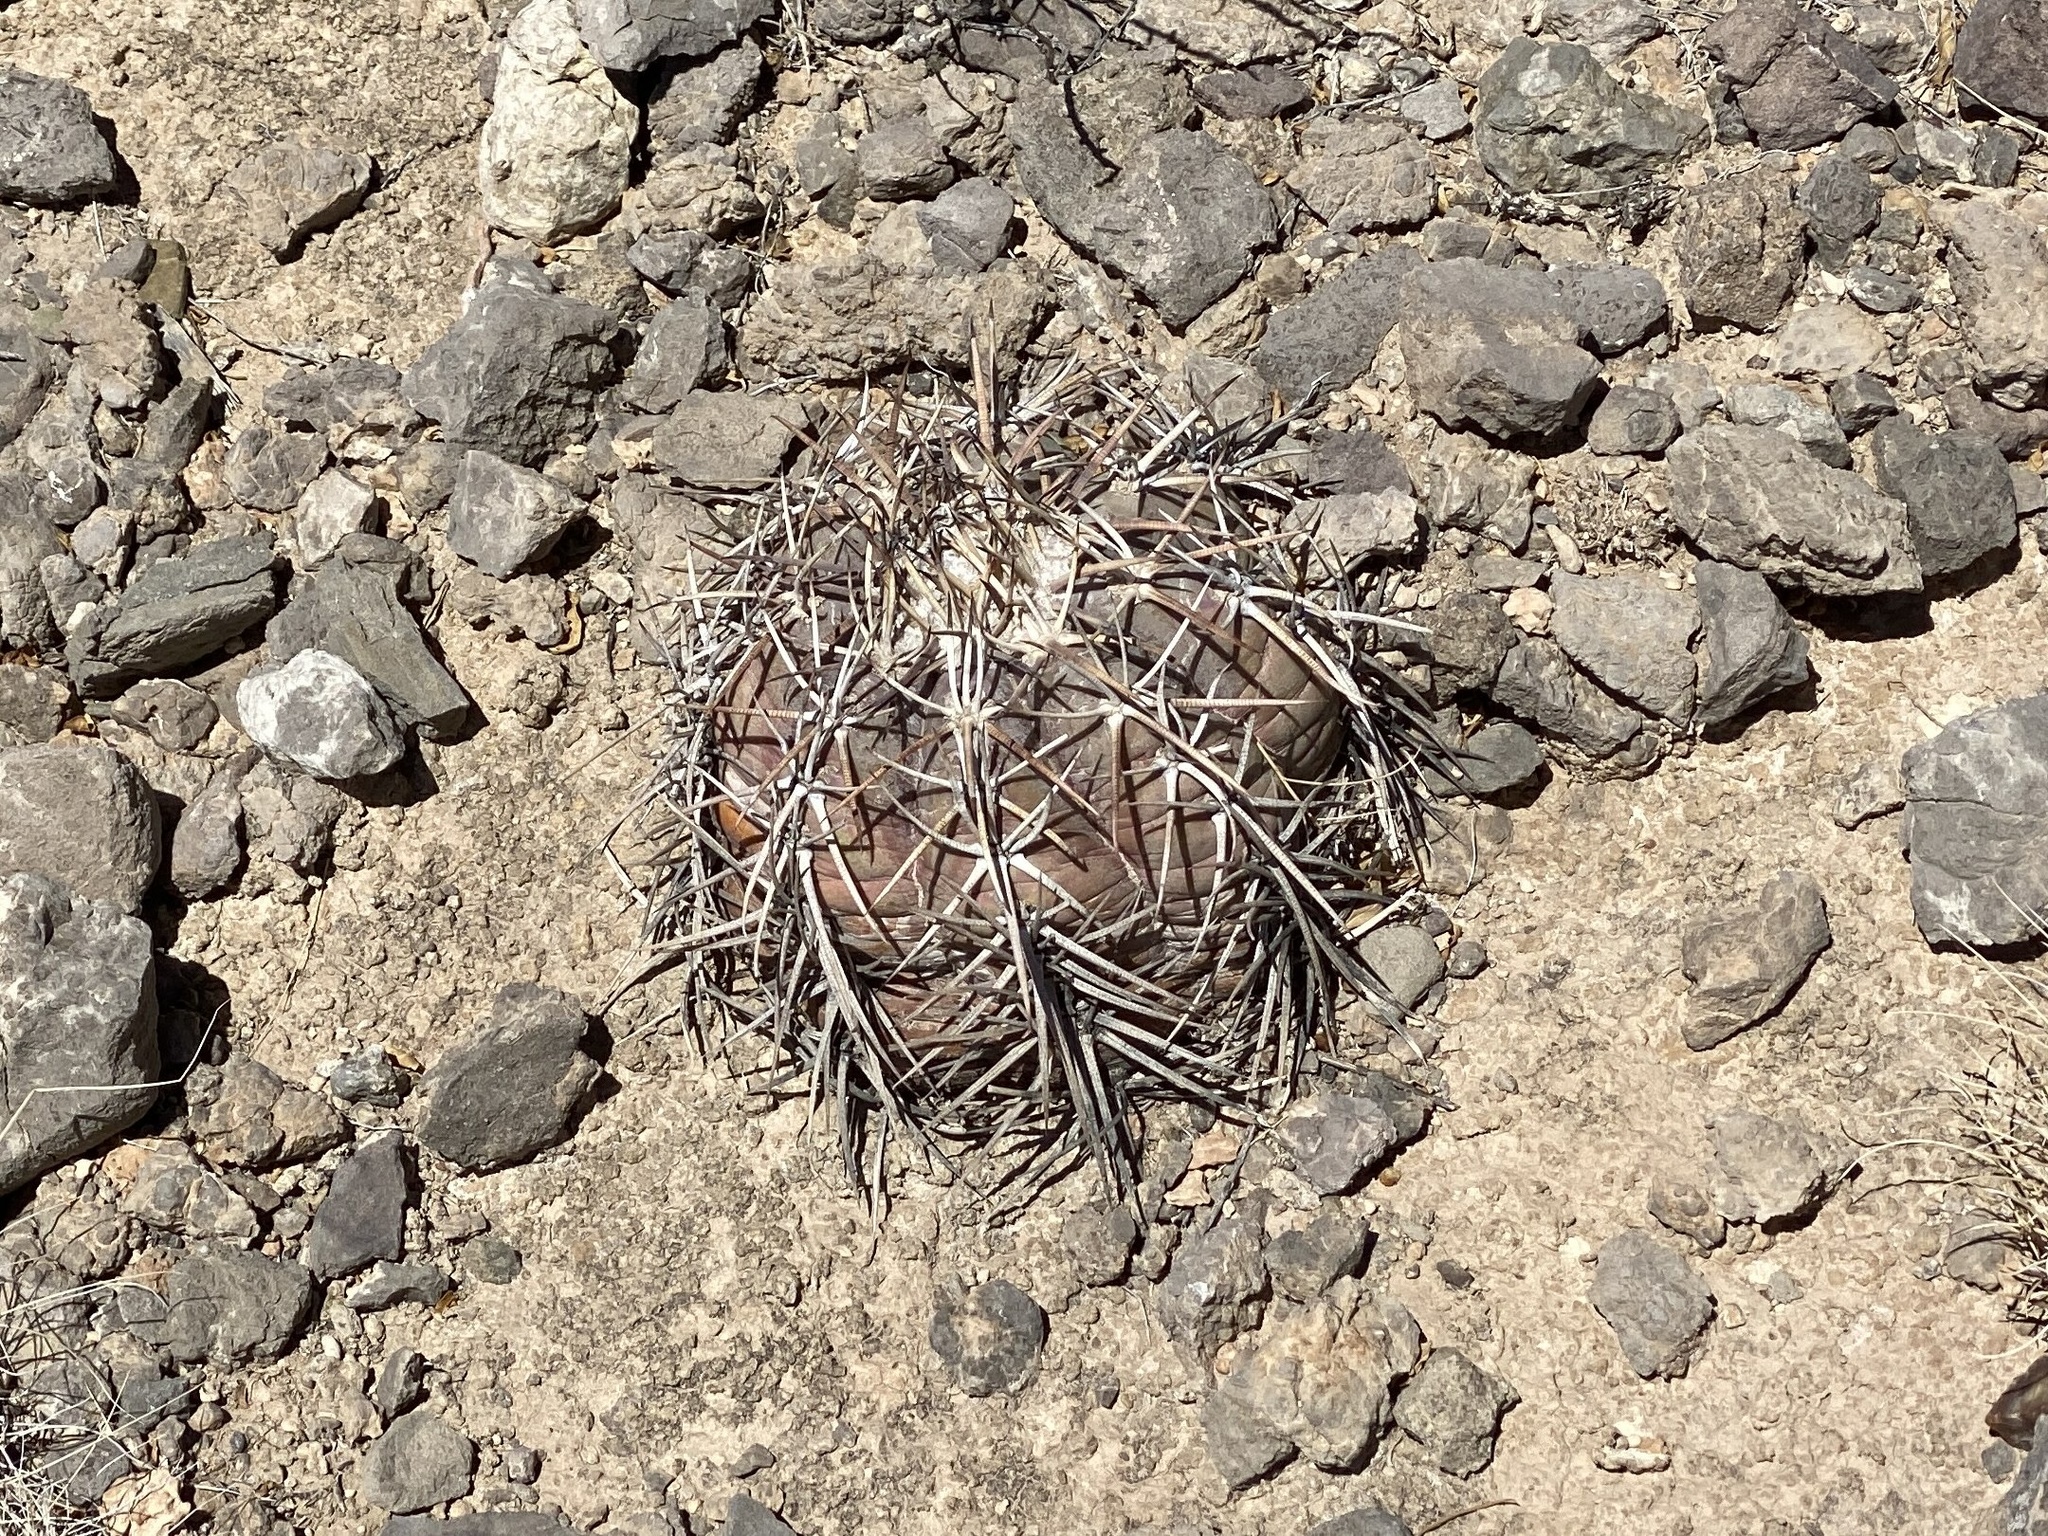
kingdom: Plantae
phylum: Tracheophyta
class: Magnoliopsida
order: Caryophyllales
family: Cactaceae
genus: Echinocactus
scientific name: Echinocactus horizonthalonius
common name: Devilshead
